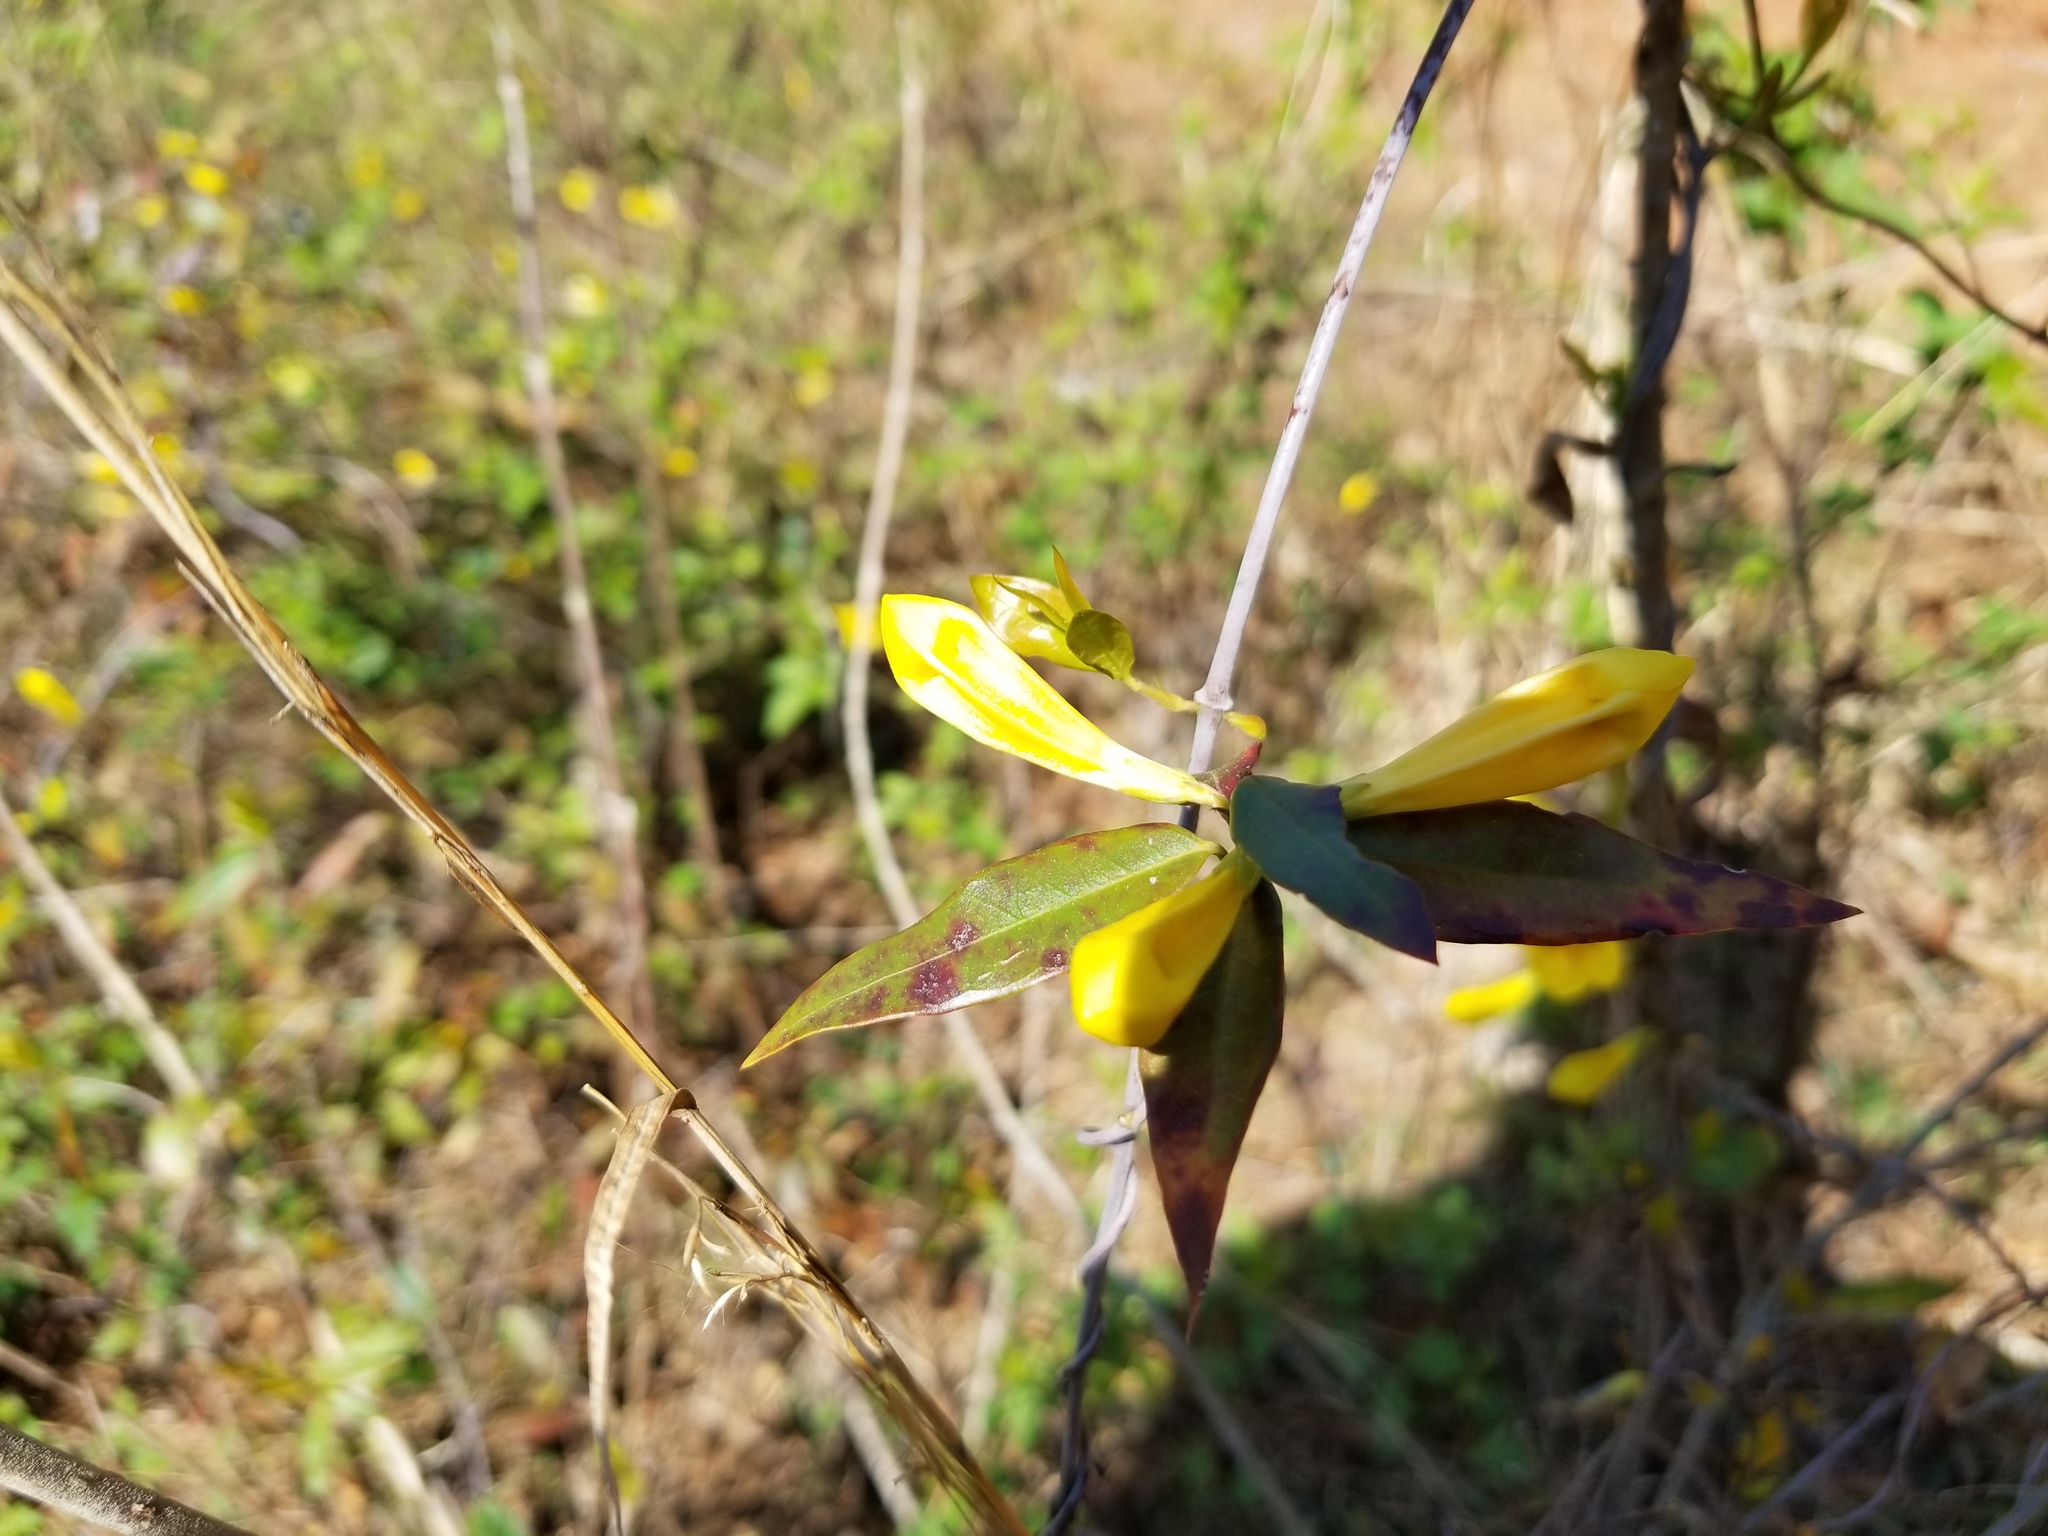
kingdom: Plantae
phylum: Tracheophyta
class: Magnoliopsida
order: Gentianales
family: Gelsemiaceae
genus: Gelsemium
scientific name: Gelsemium sempervirens
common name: Carolina-jasmine
